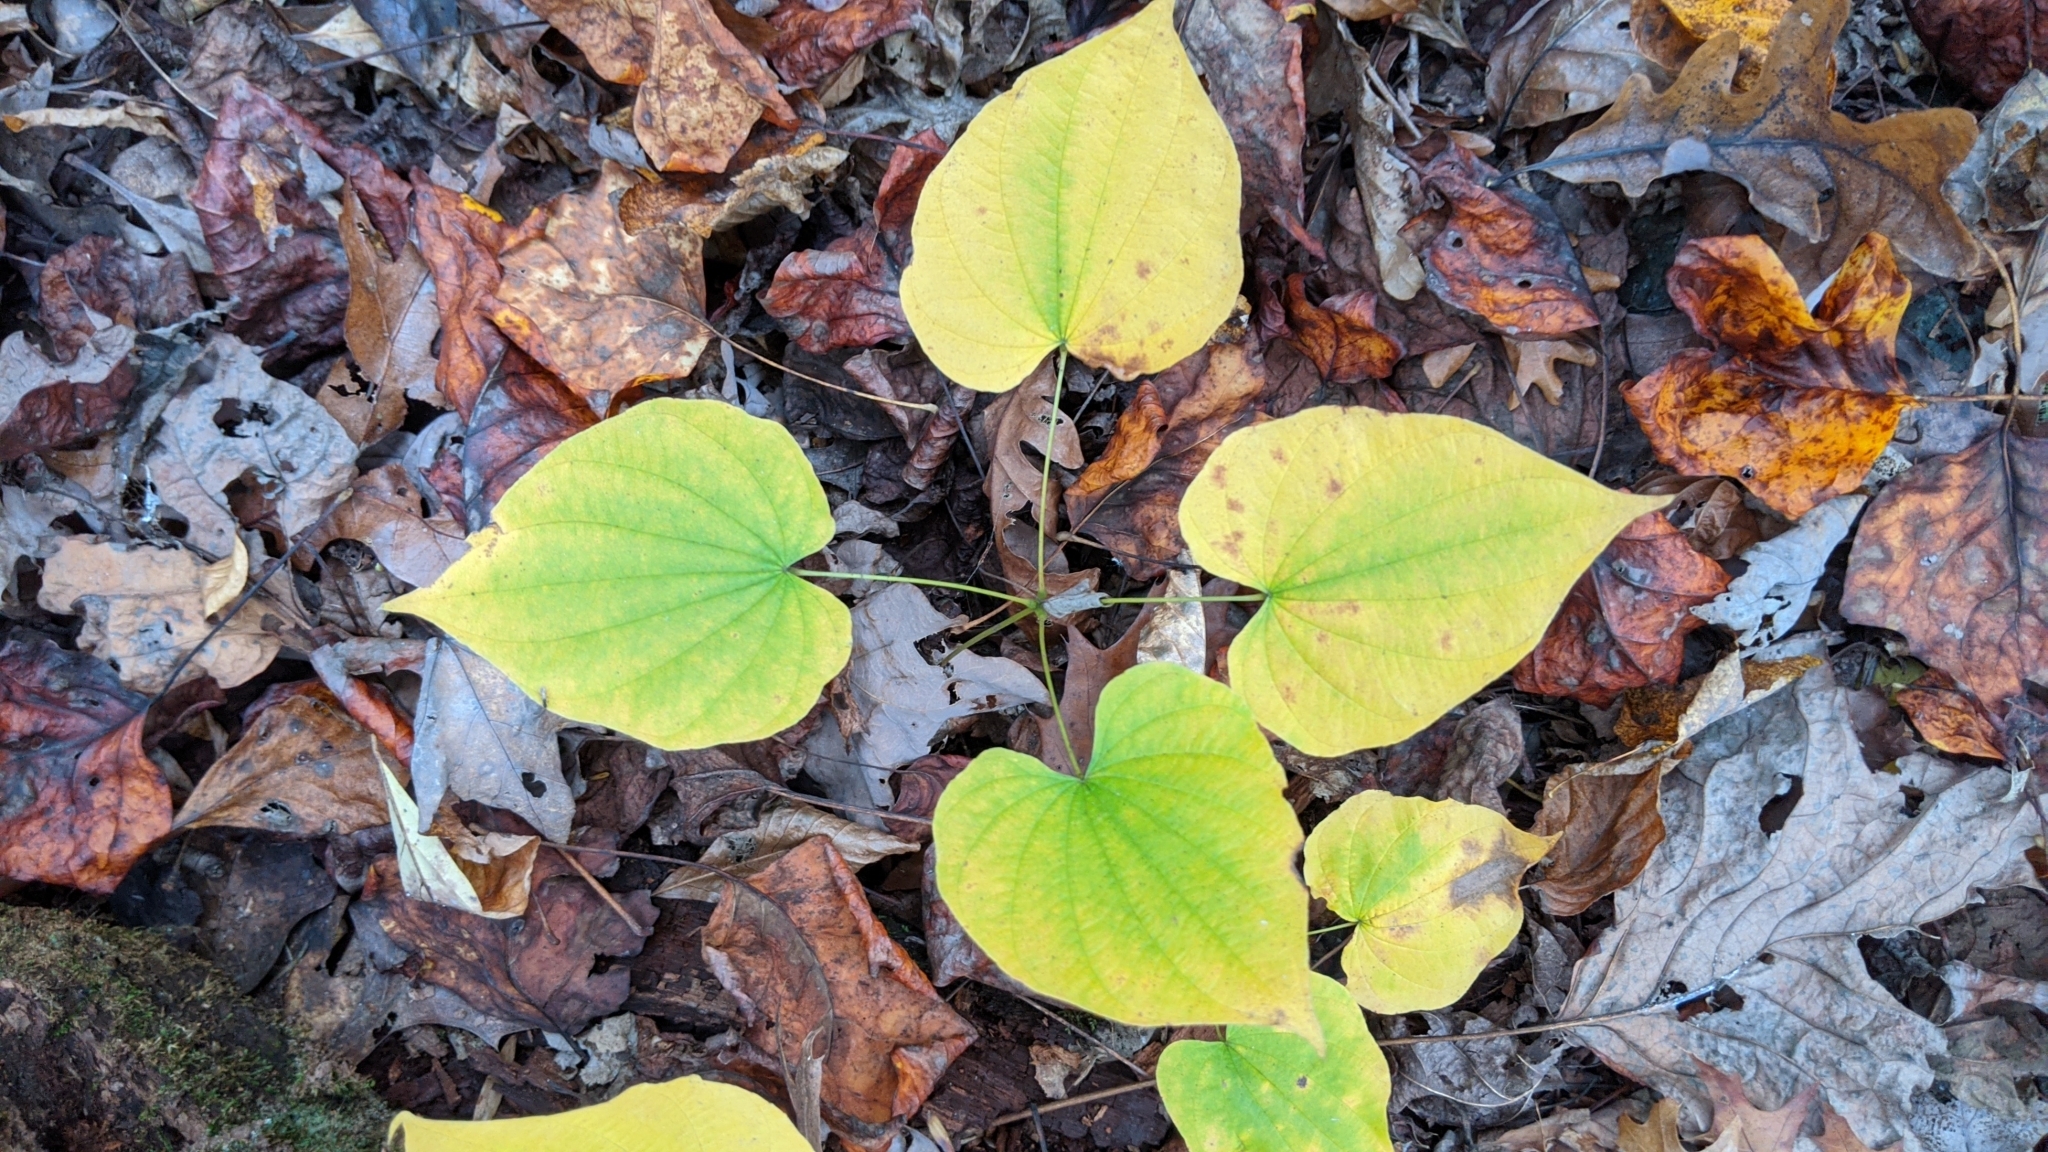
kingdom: Plantae
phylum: Tracheophyta
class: Liliopsida
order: Dioscoreales
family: Dioscoreaceae
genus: Dioscorea
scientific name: Dioscorea villosa
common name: Wild yam
